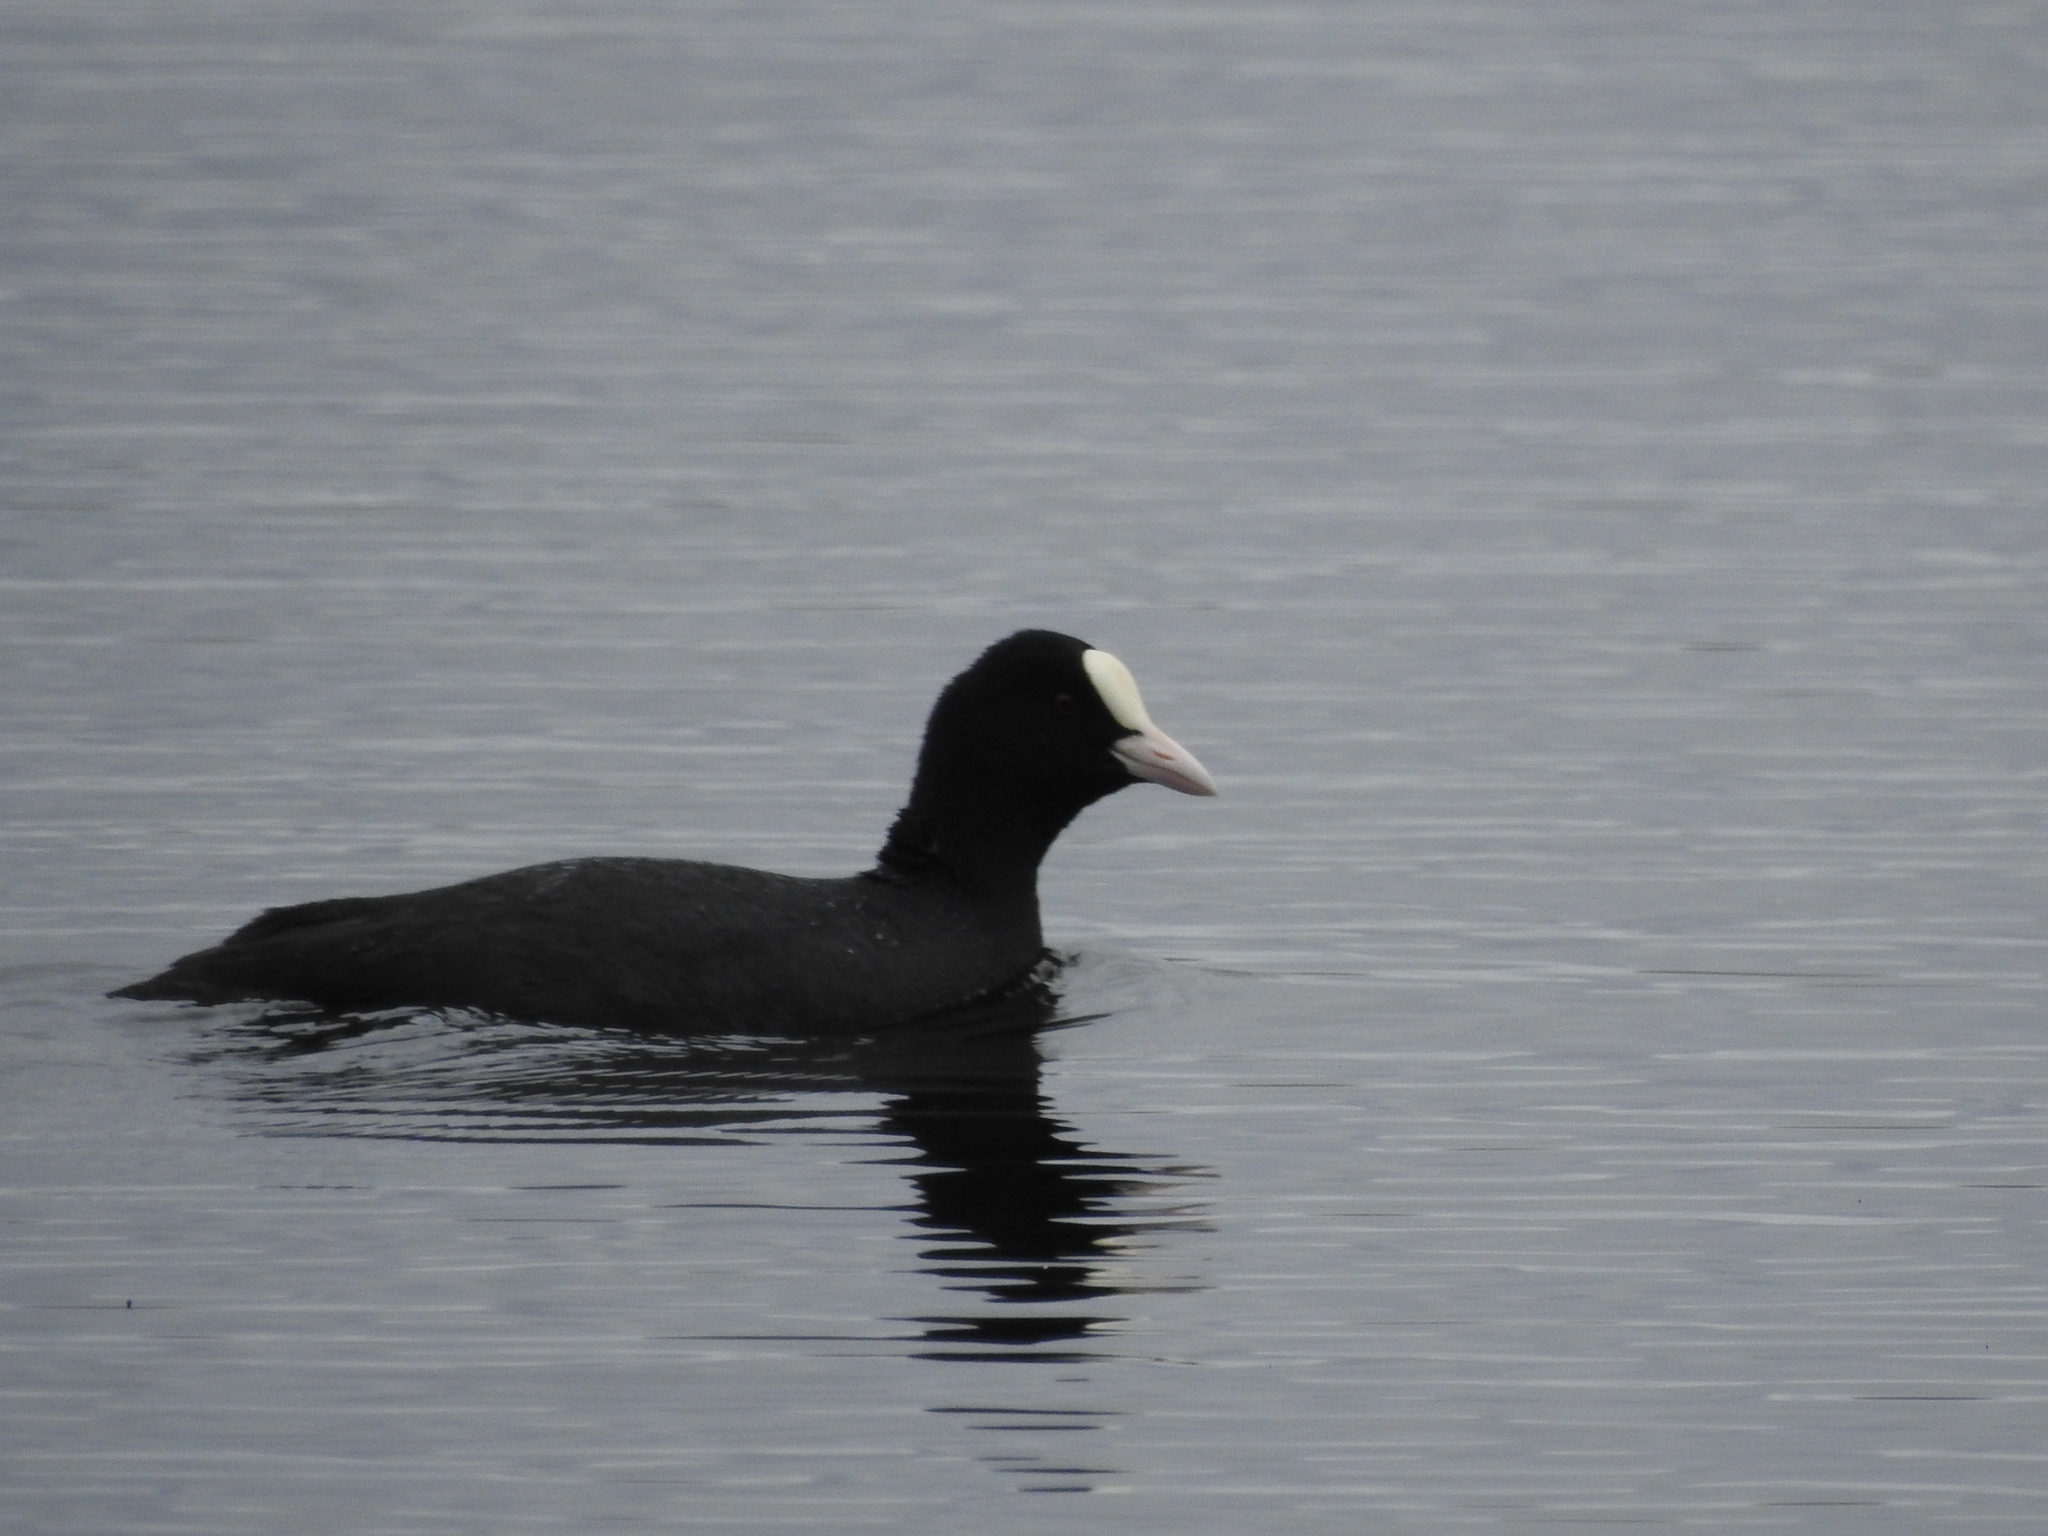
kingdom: Animalia
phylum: Chordata
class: Aves
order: Gruiformes
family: Rallidae
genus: Fulica
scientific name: Fulica atra
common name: Eurasian coot
